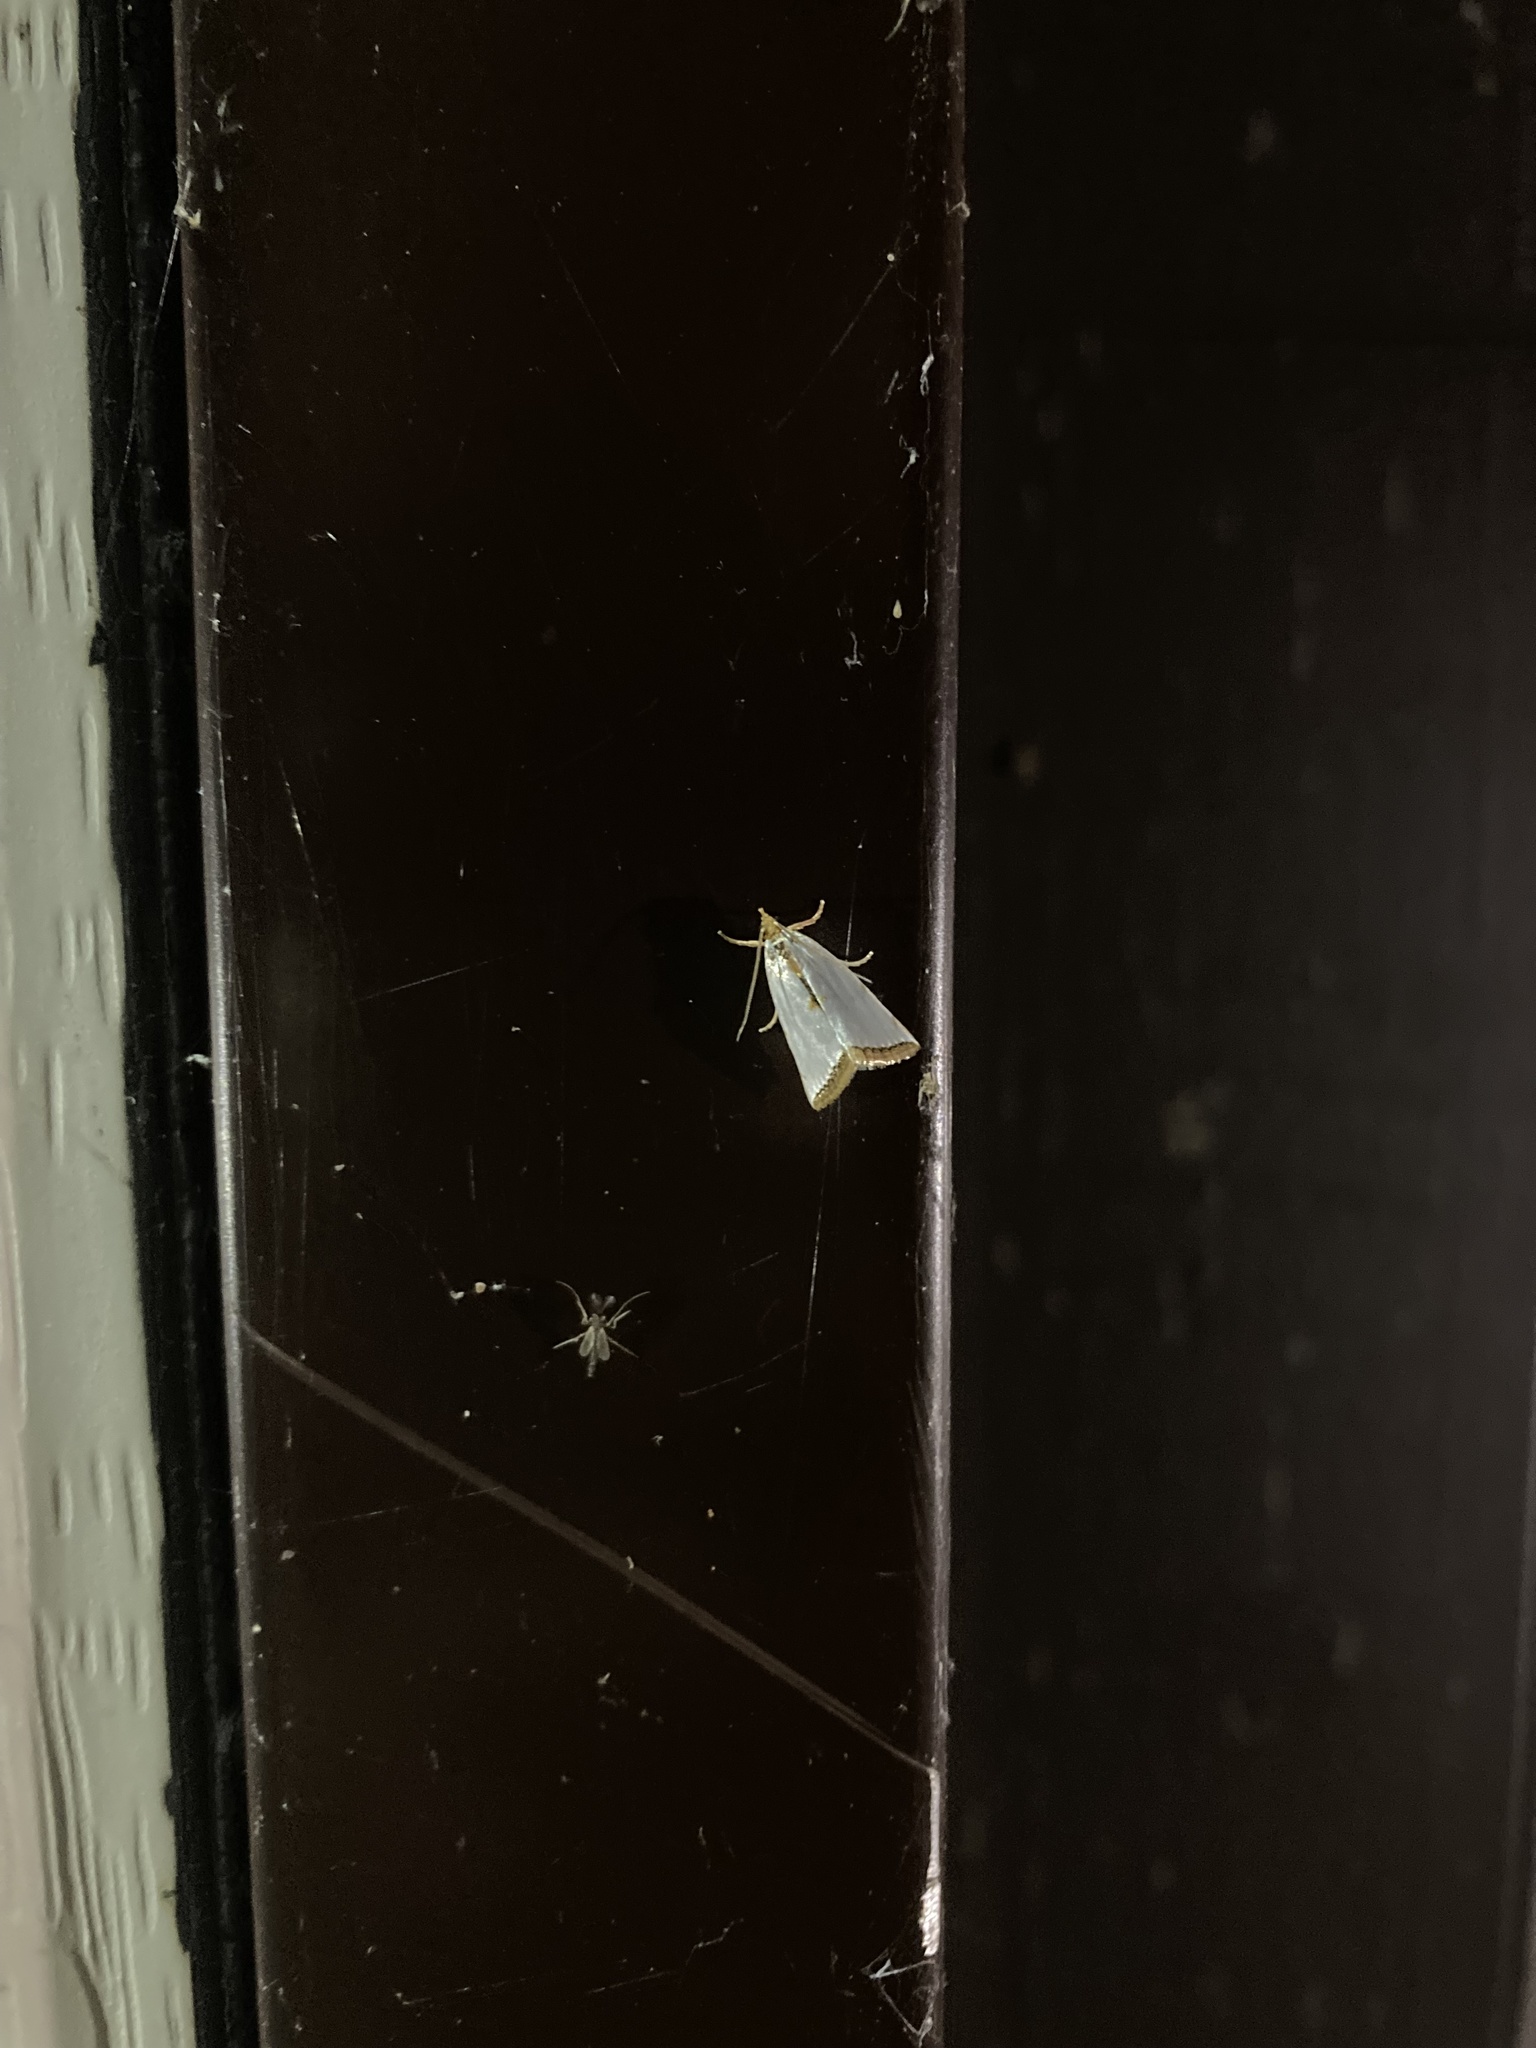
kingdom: Animalia
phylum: Arthropoda
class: Insecta
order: Lepidoptera
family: Crambidae
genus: Argyria
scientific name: Argyria nivalis
